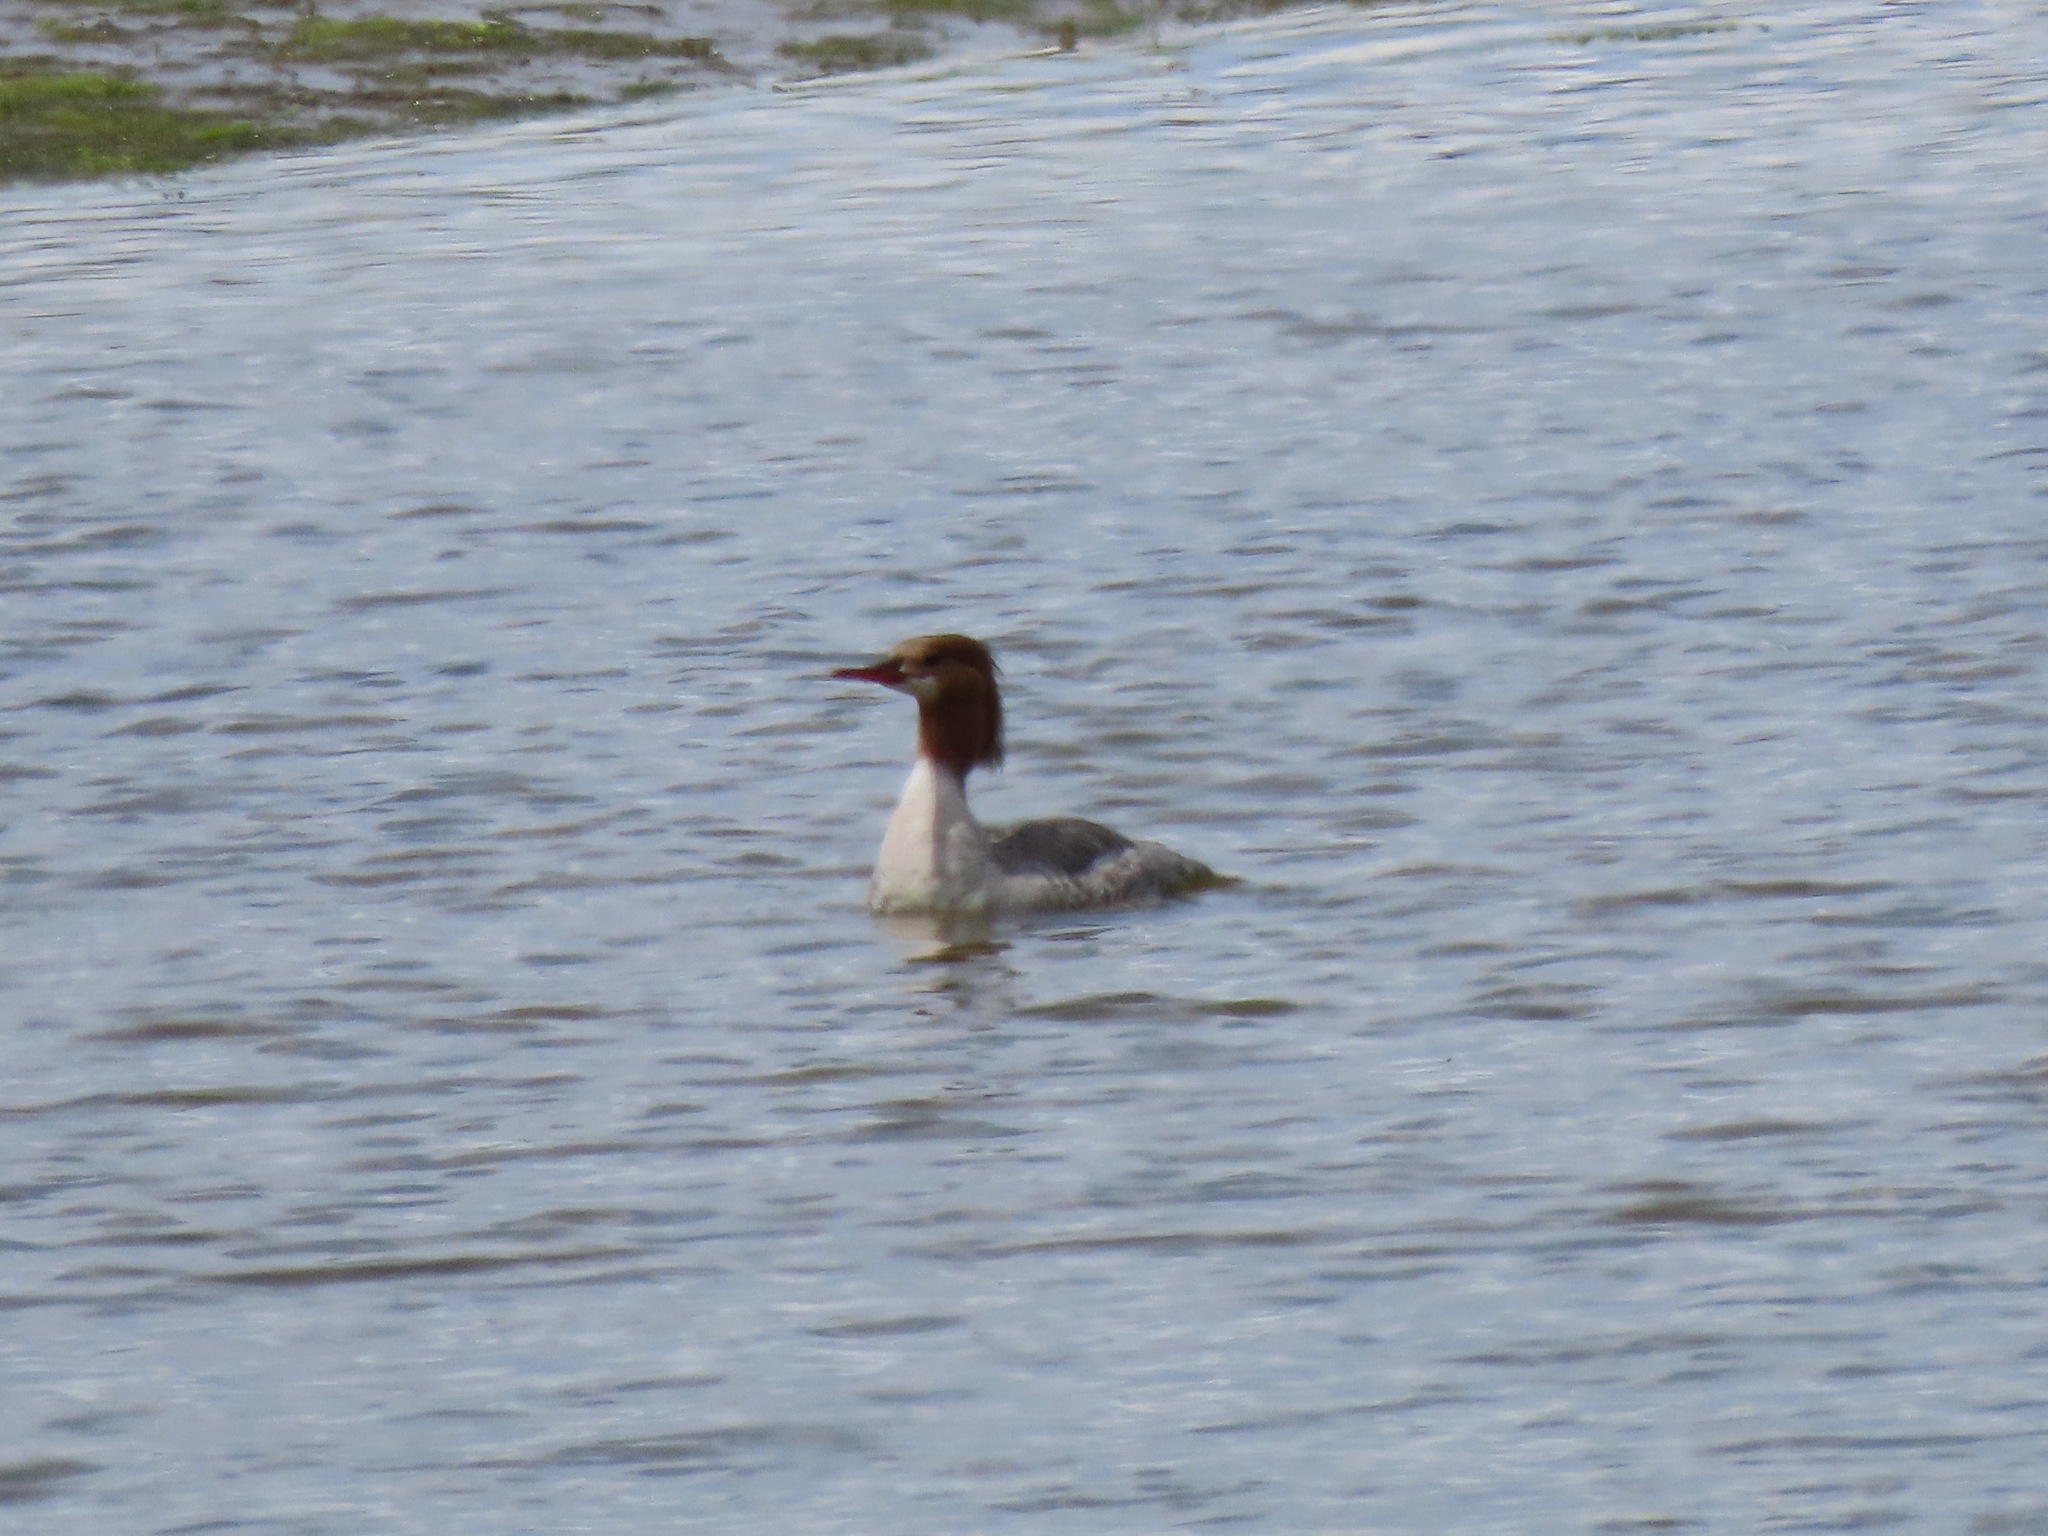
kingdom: Animalia
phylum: Chordata
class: Aves
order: Anseriformes
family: Anatidae
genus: Mergus
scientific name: Mergus merganser
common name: Common merganser
